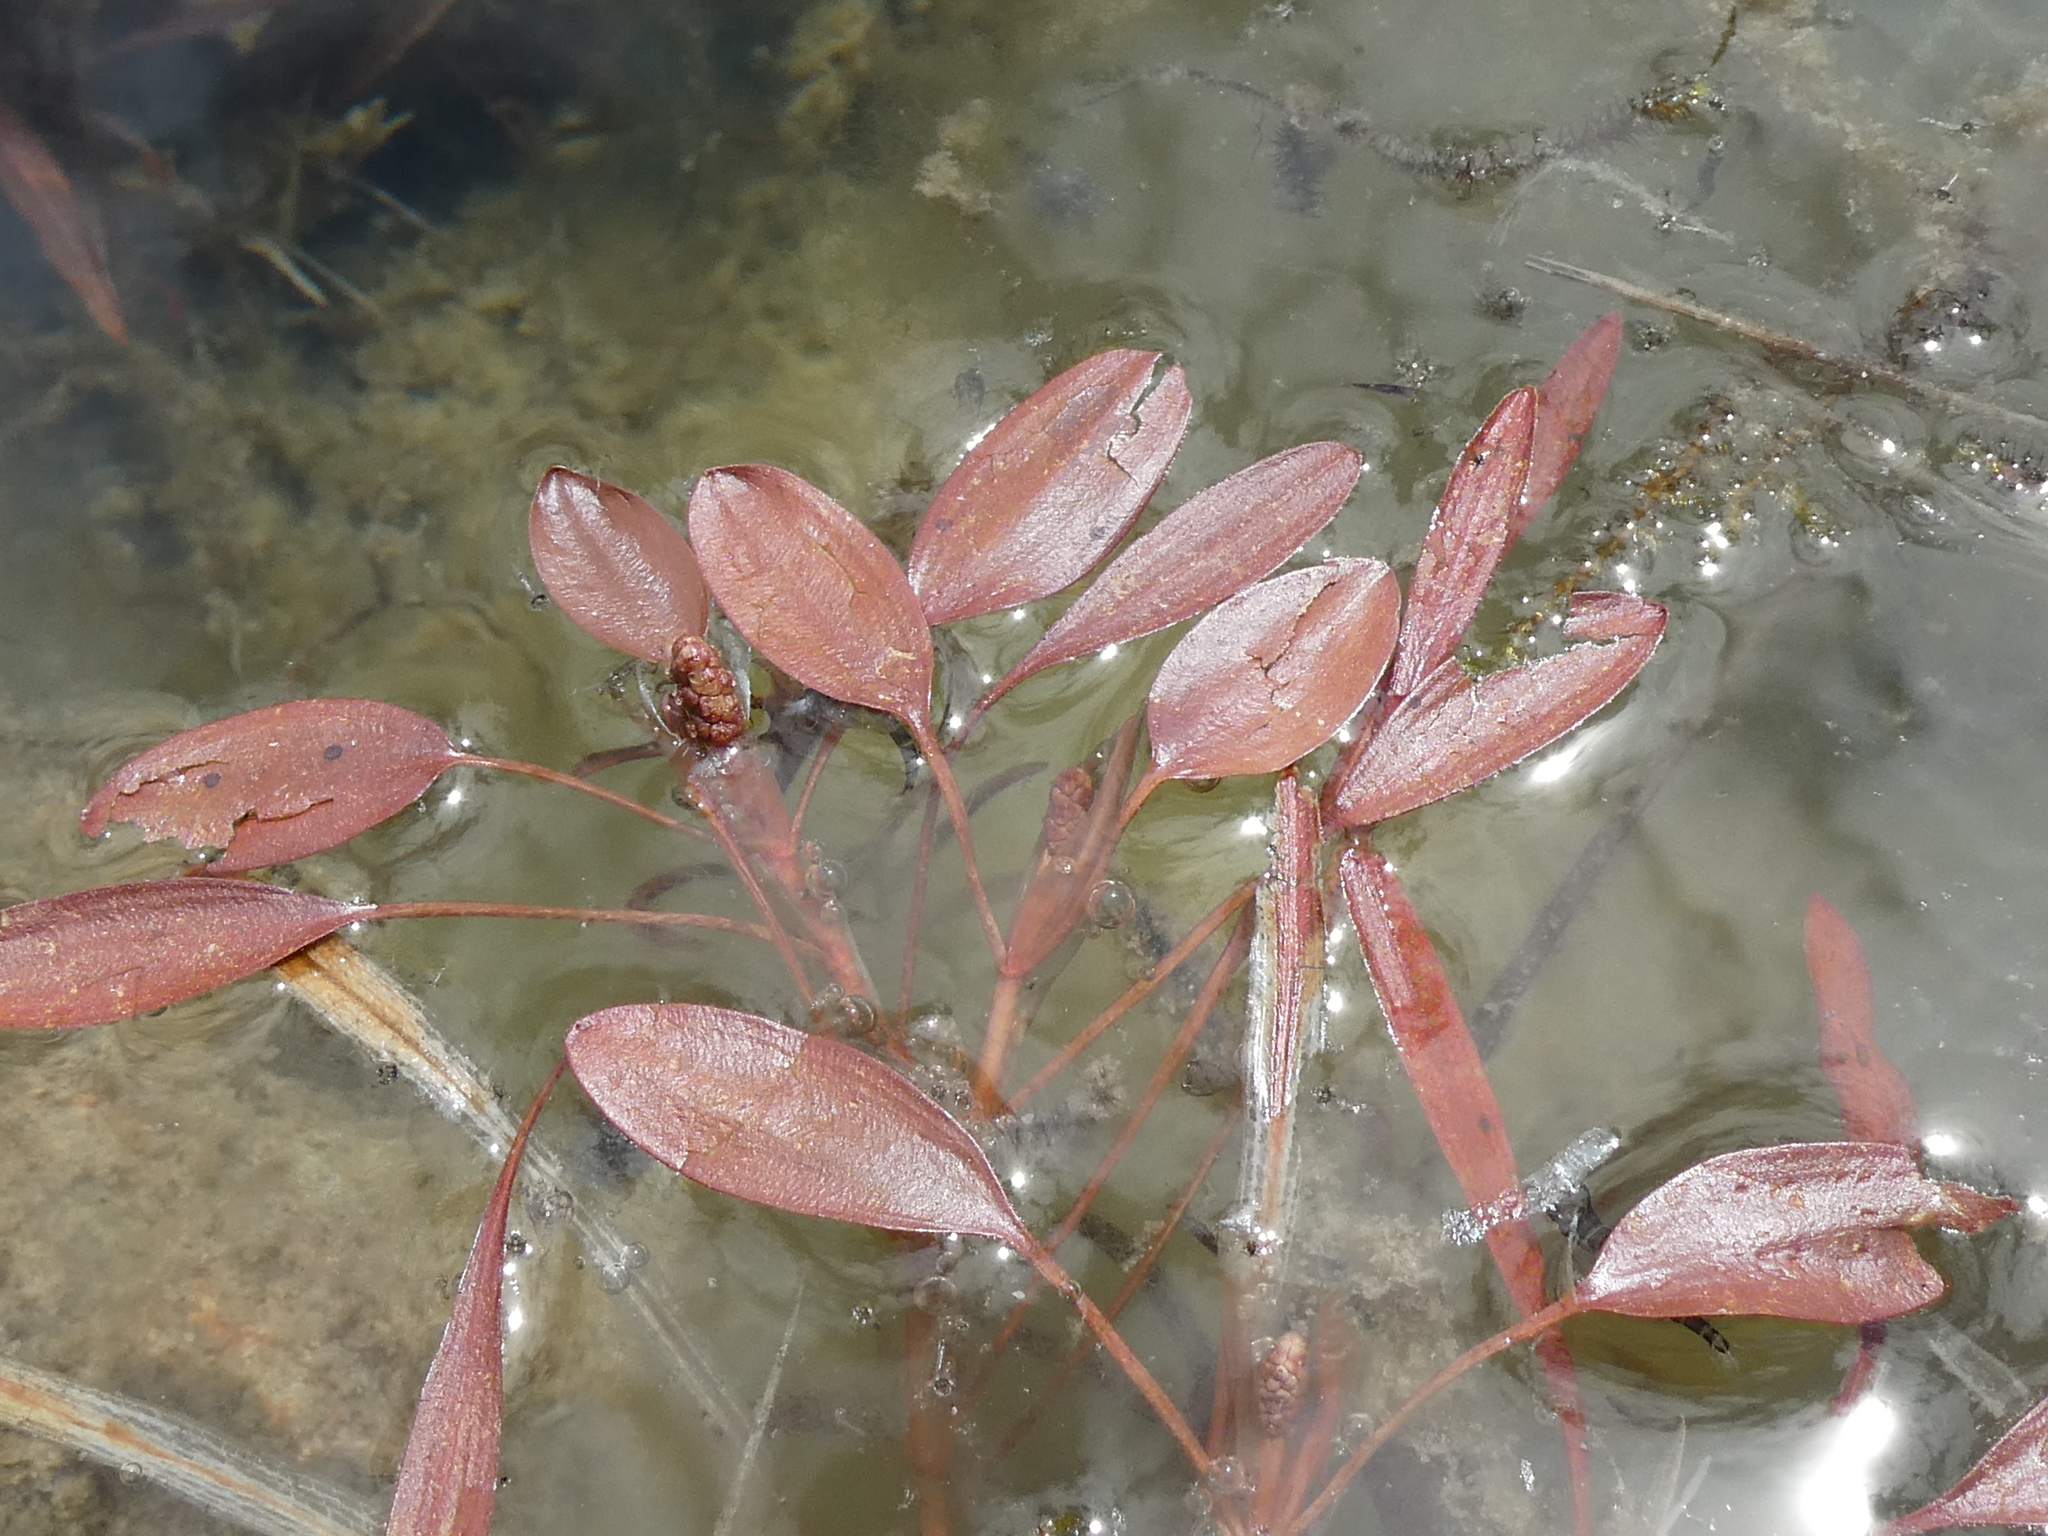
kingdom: Plantae
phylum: Tracheophyta
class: Liliopsida
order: Alismatales
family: Potamogetonaceae
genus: Potamogeton
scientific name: Potamogeton cheesemanii
